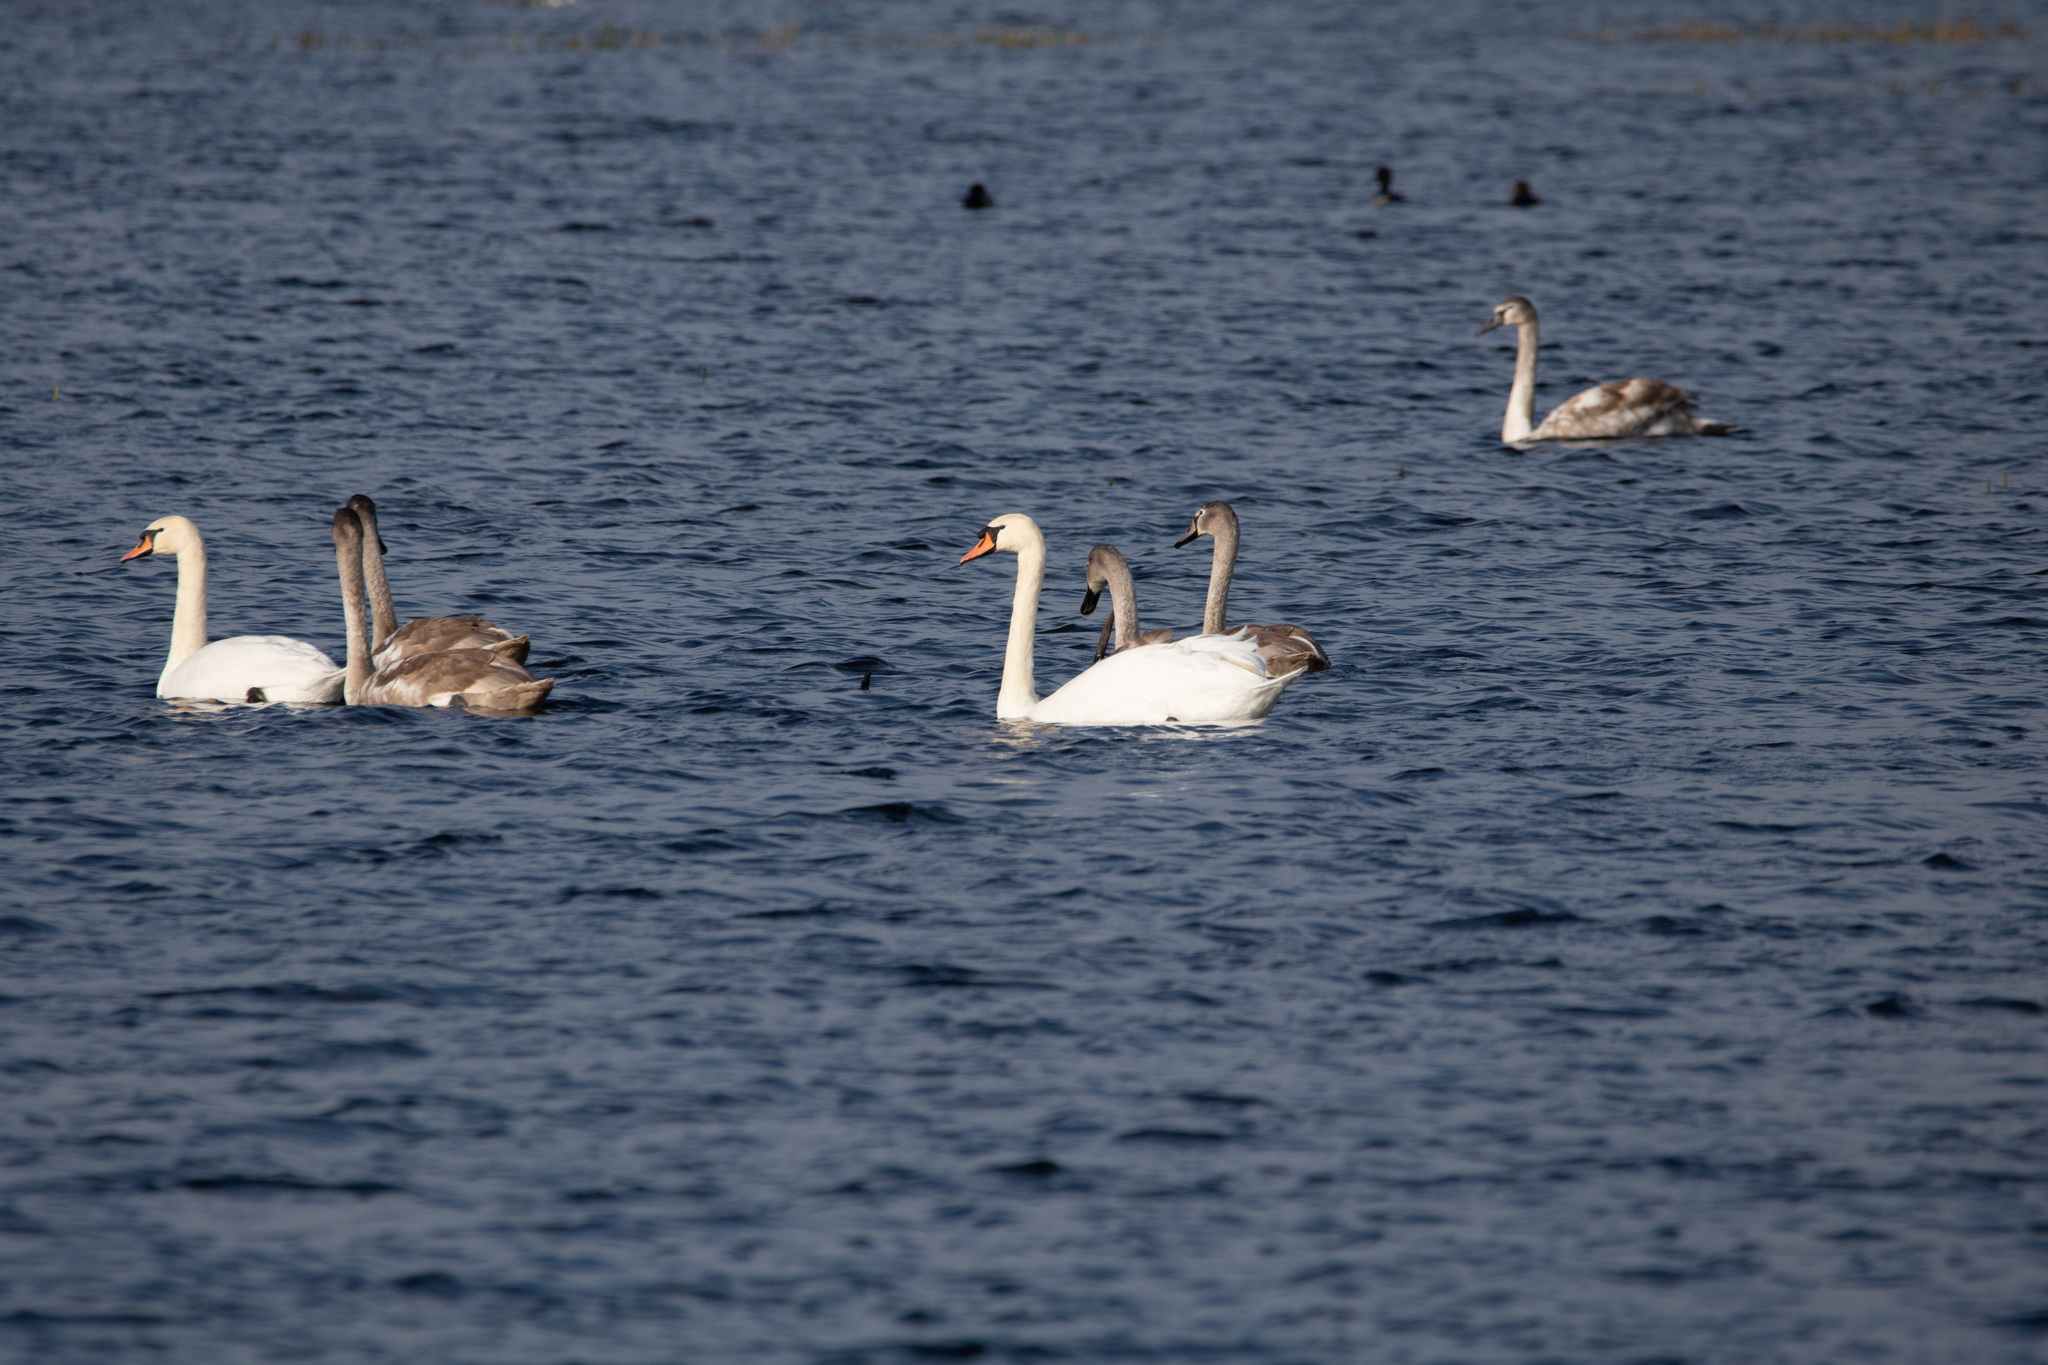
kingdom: Animalia
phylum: Chordata
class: Aves
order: Anseriformes
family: Anatidae
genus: Cygnus
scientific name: Cygnus olor
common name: Mute swan
